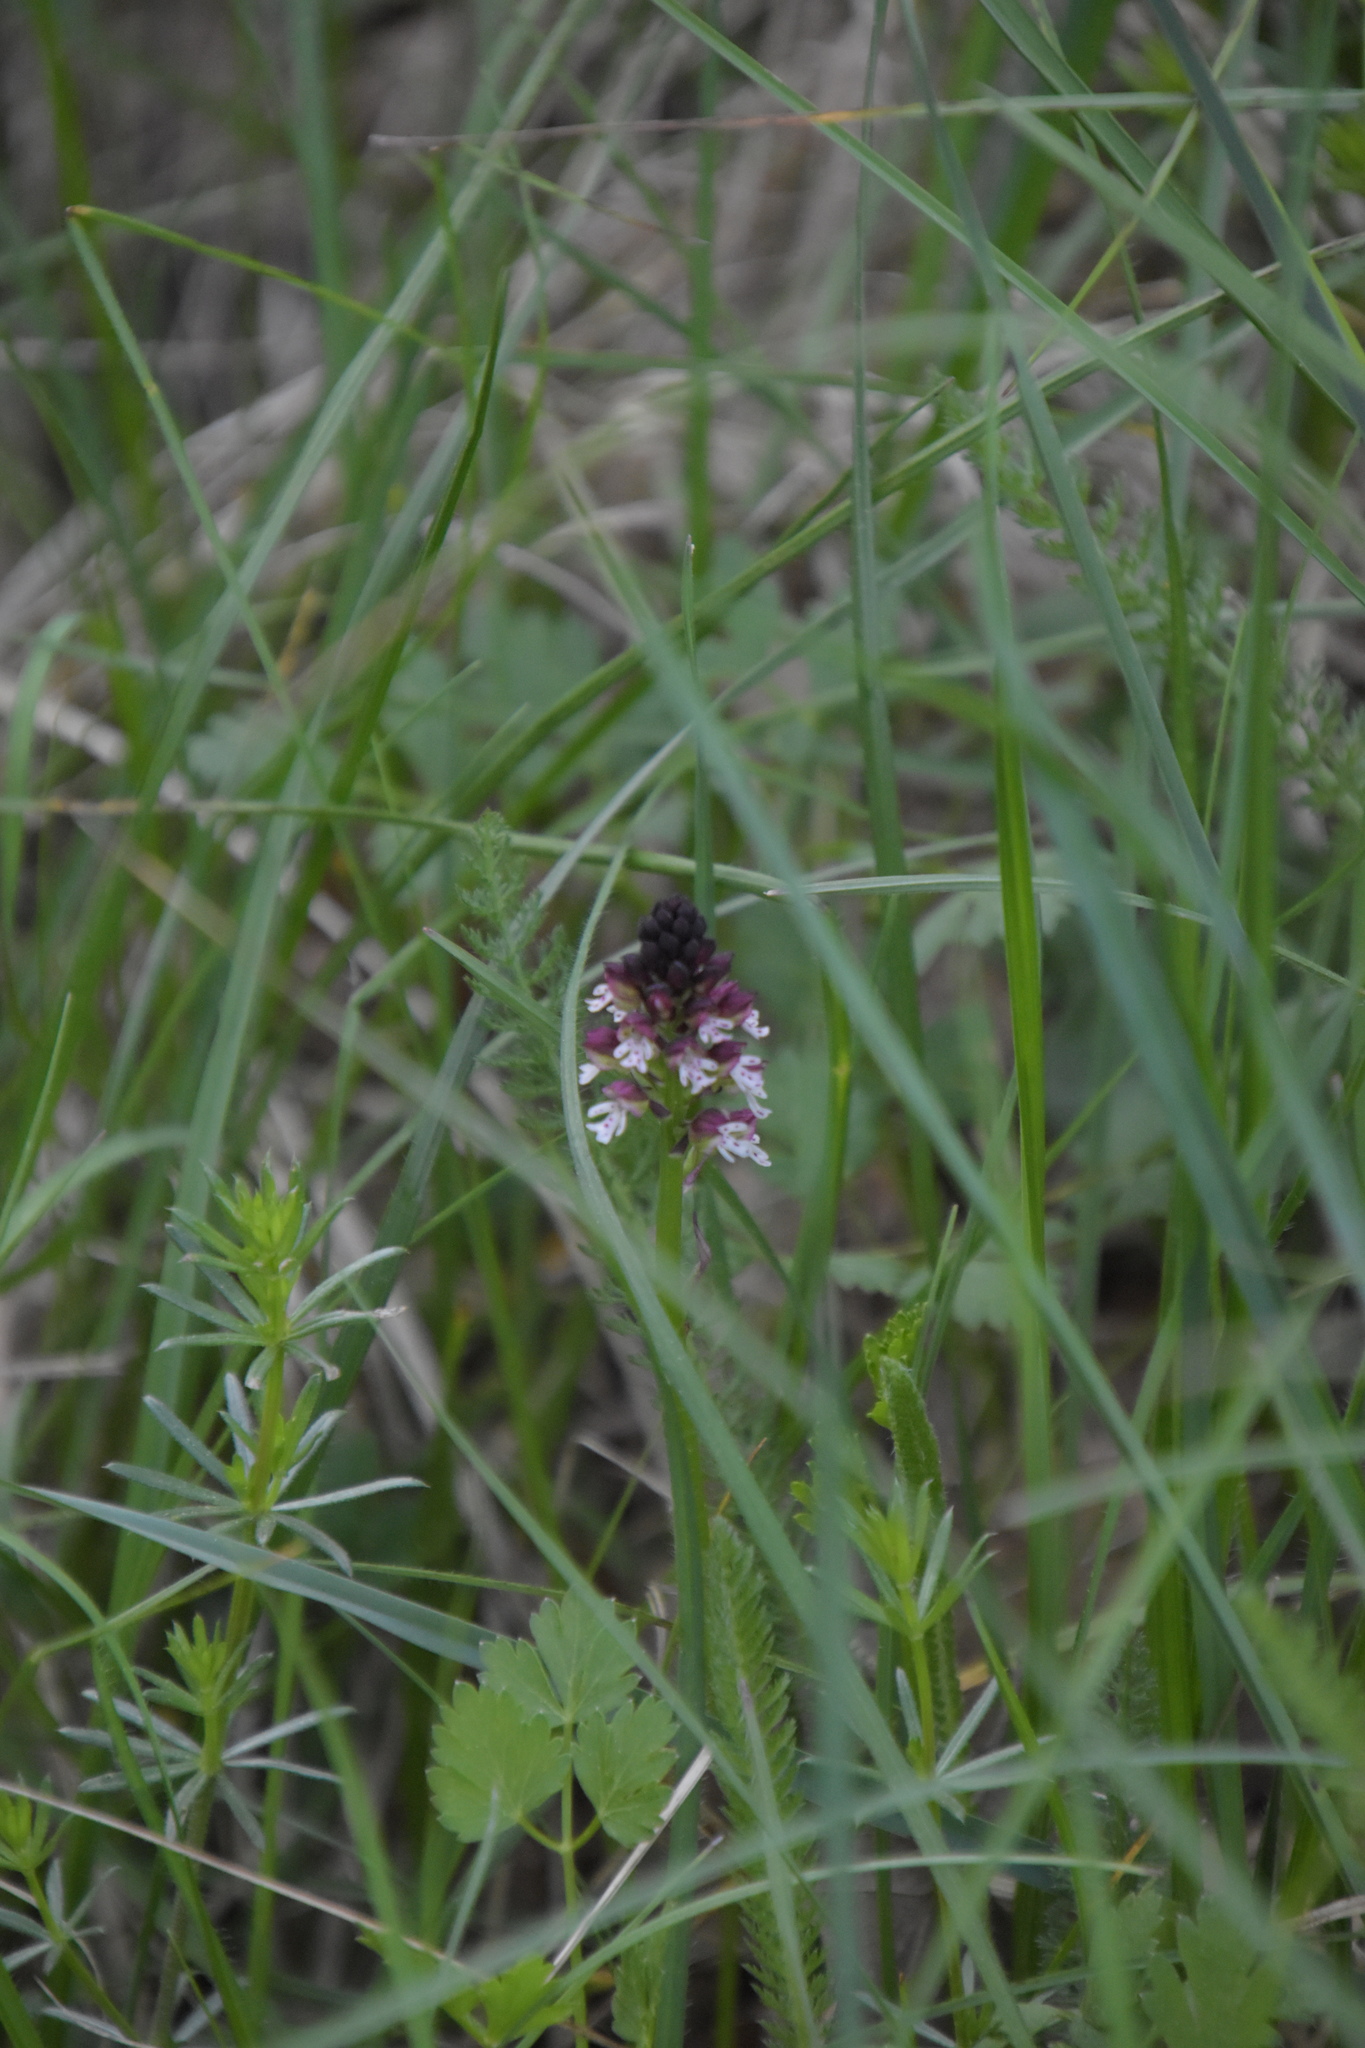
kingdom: Plantae
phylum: Tracheophyta
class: Liliopsida
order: Asparagales
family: Orchidaceae
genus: Neotinea
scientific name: Neotinea ustulata
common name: Burnt orchid
